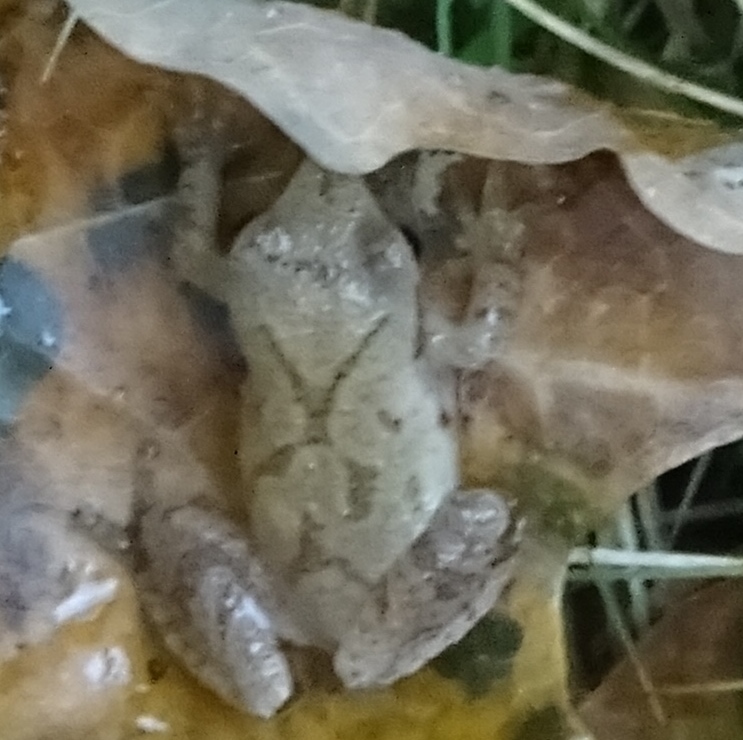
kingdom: Animalia
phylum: Chordata
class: Amphibia
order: Anura
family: Hylidae
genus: Pseudacris
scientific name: Pseudacris crucifer
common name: Spring peeper
